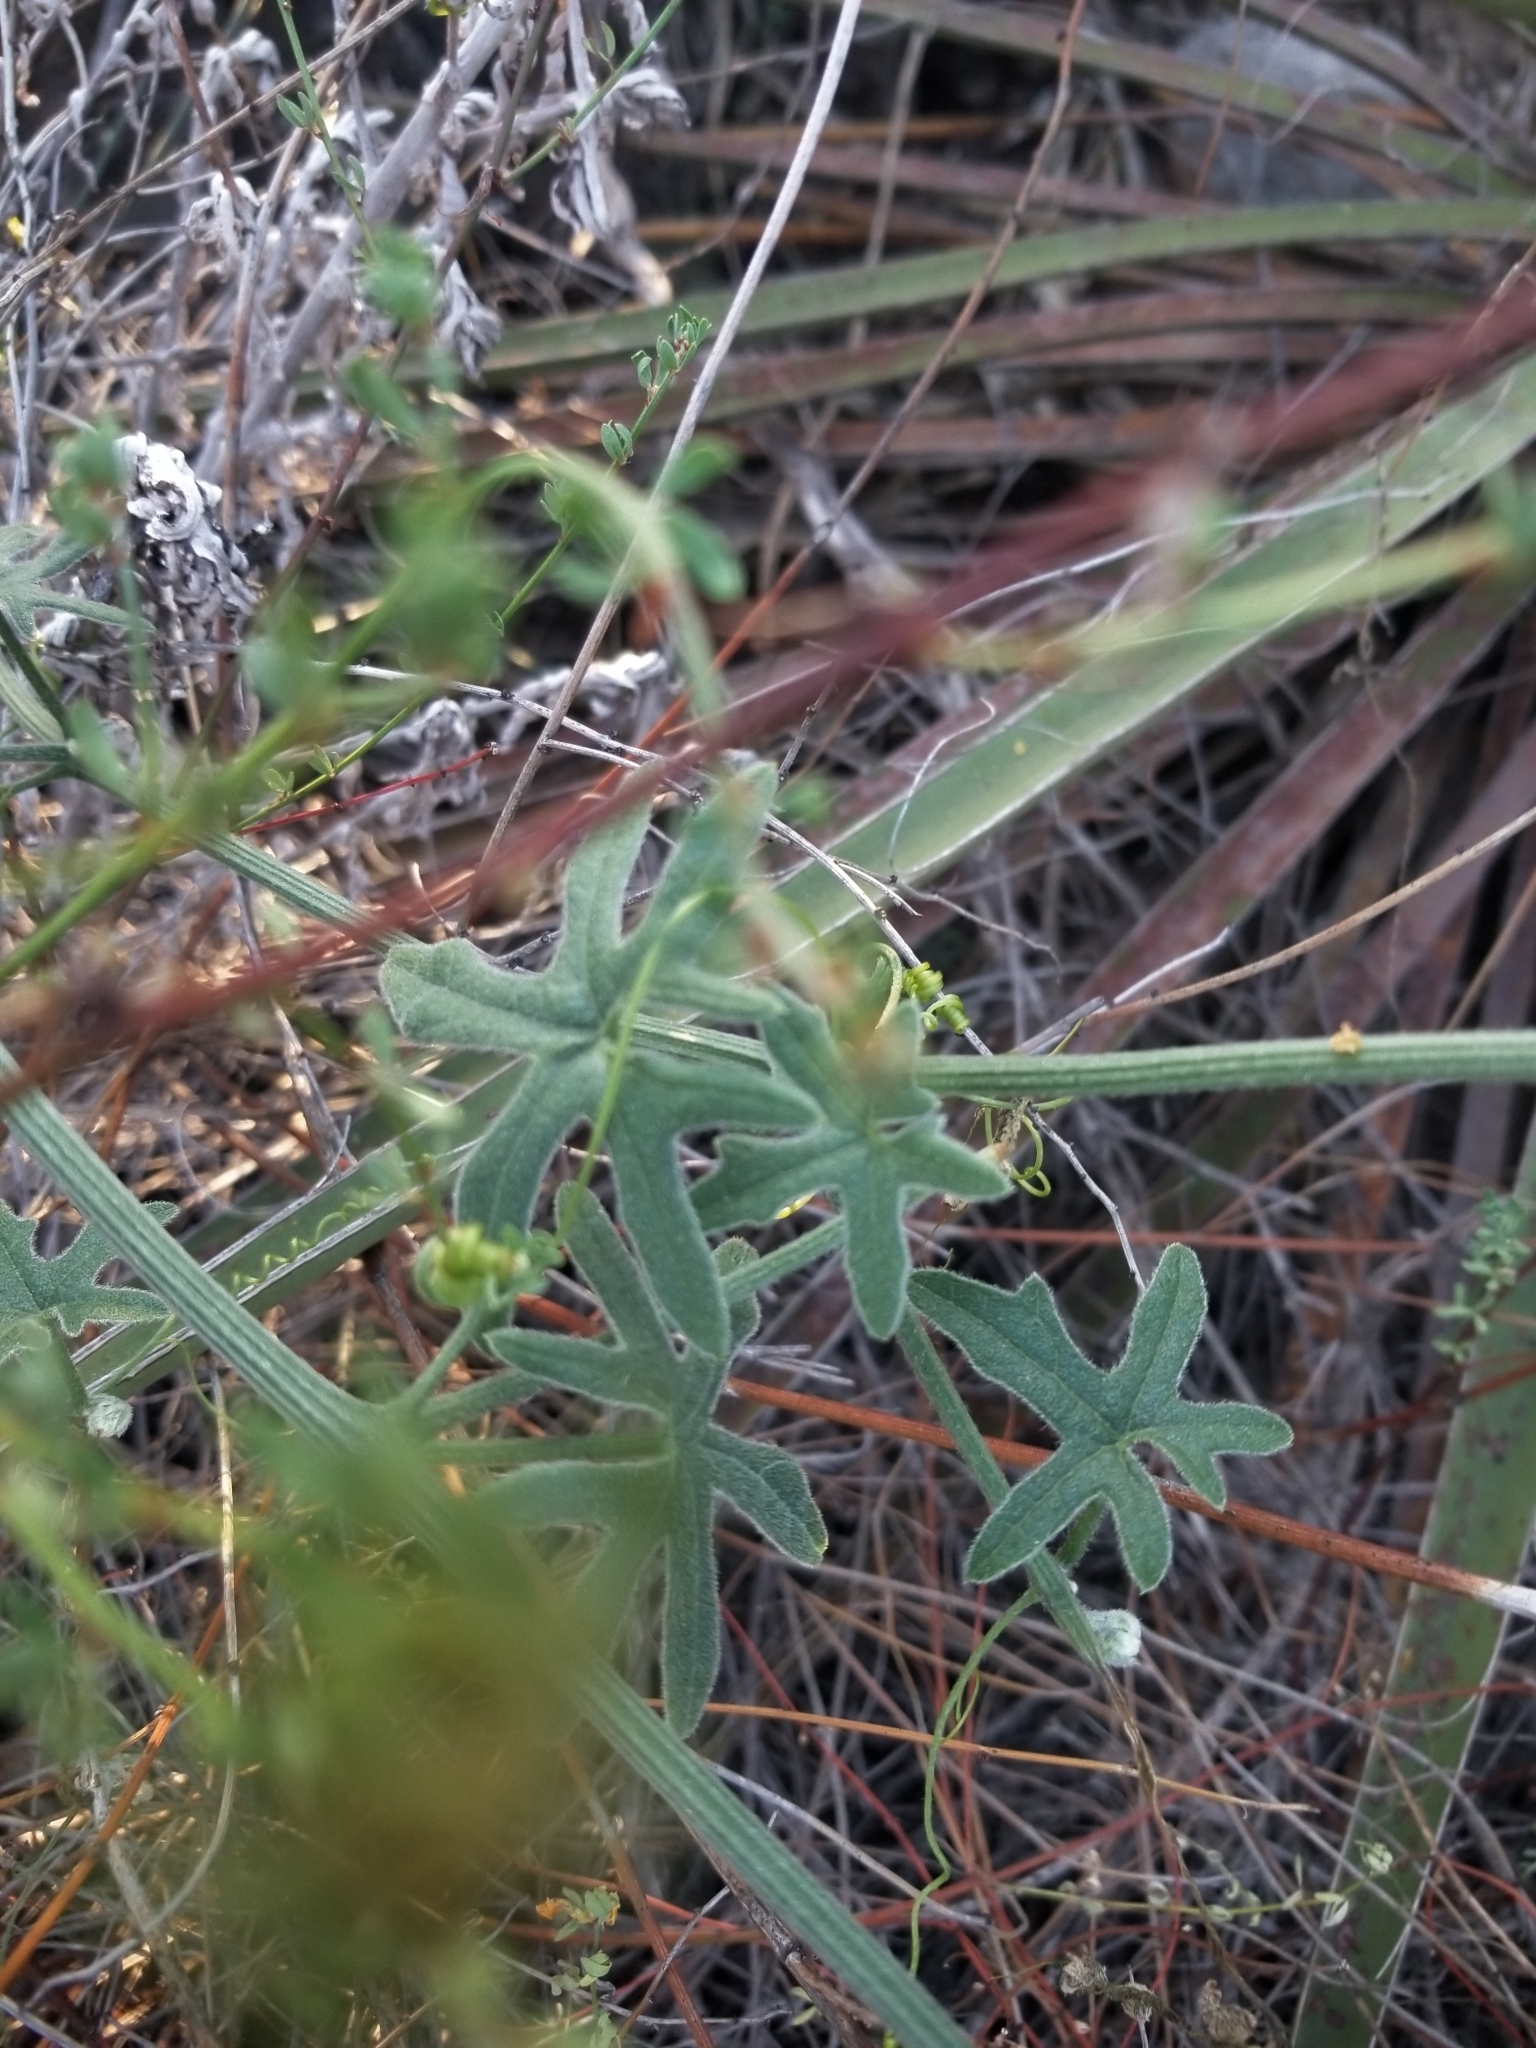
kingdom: Plantae
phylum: Tracheophyta
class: Magnoliopsida
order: Cucurbitales
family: Cucurbitaceae
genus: Marah
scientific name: Marah macrocarpa
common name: Cucamonga manroot
